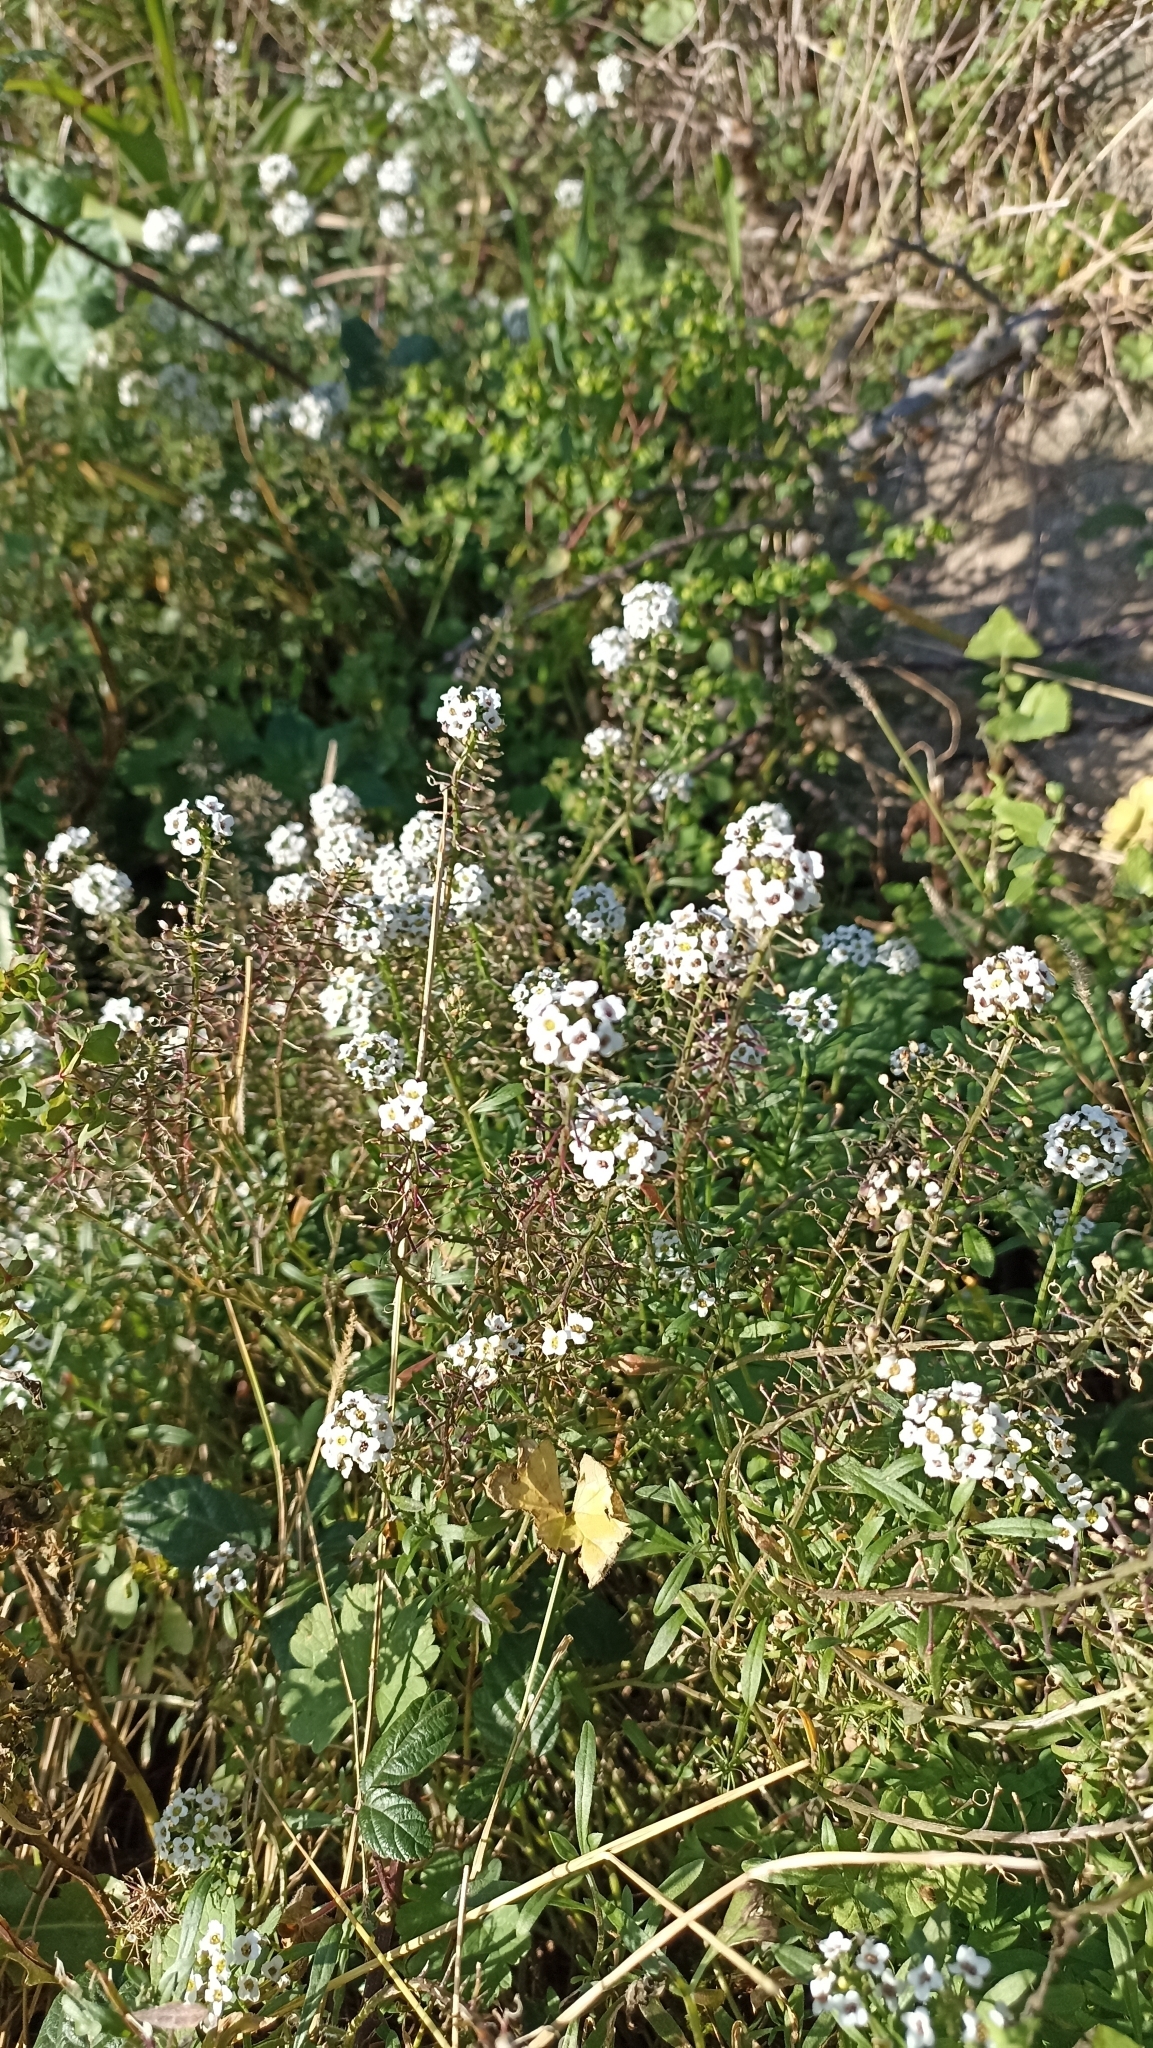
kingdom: Plantae
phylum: Tracheophyta
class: Magnoliopsida
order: Brassicales
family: Brassicaceae
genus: Lobularia
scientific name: Lobularia maritima
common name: Sweet alison
